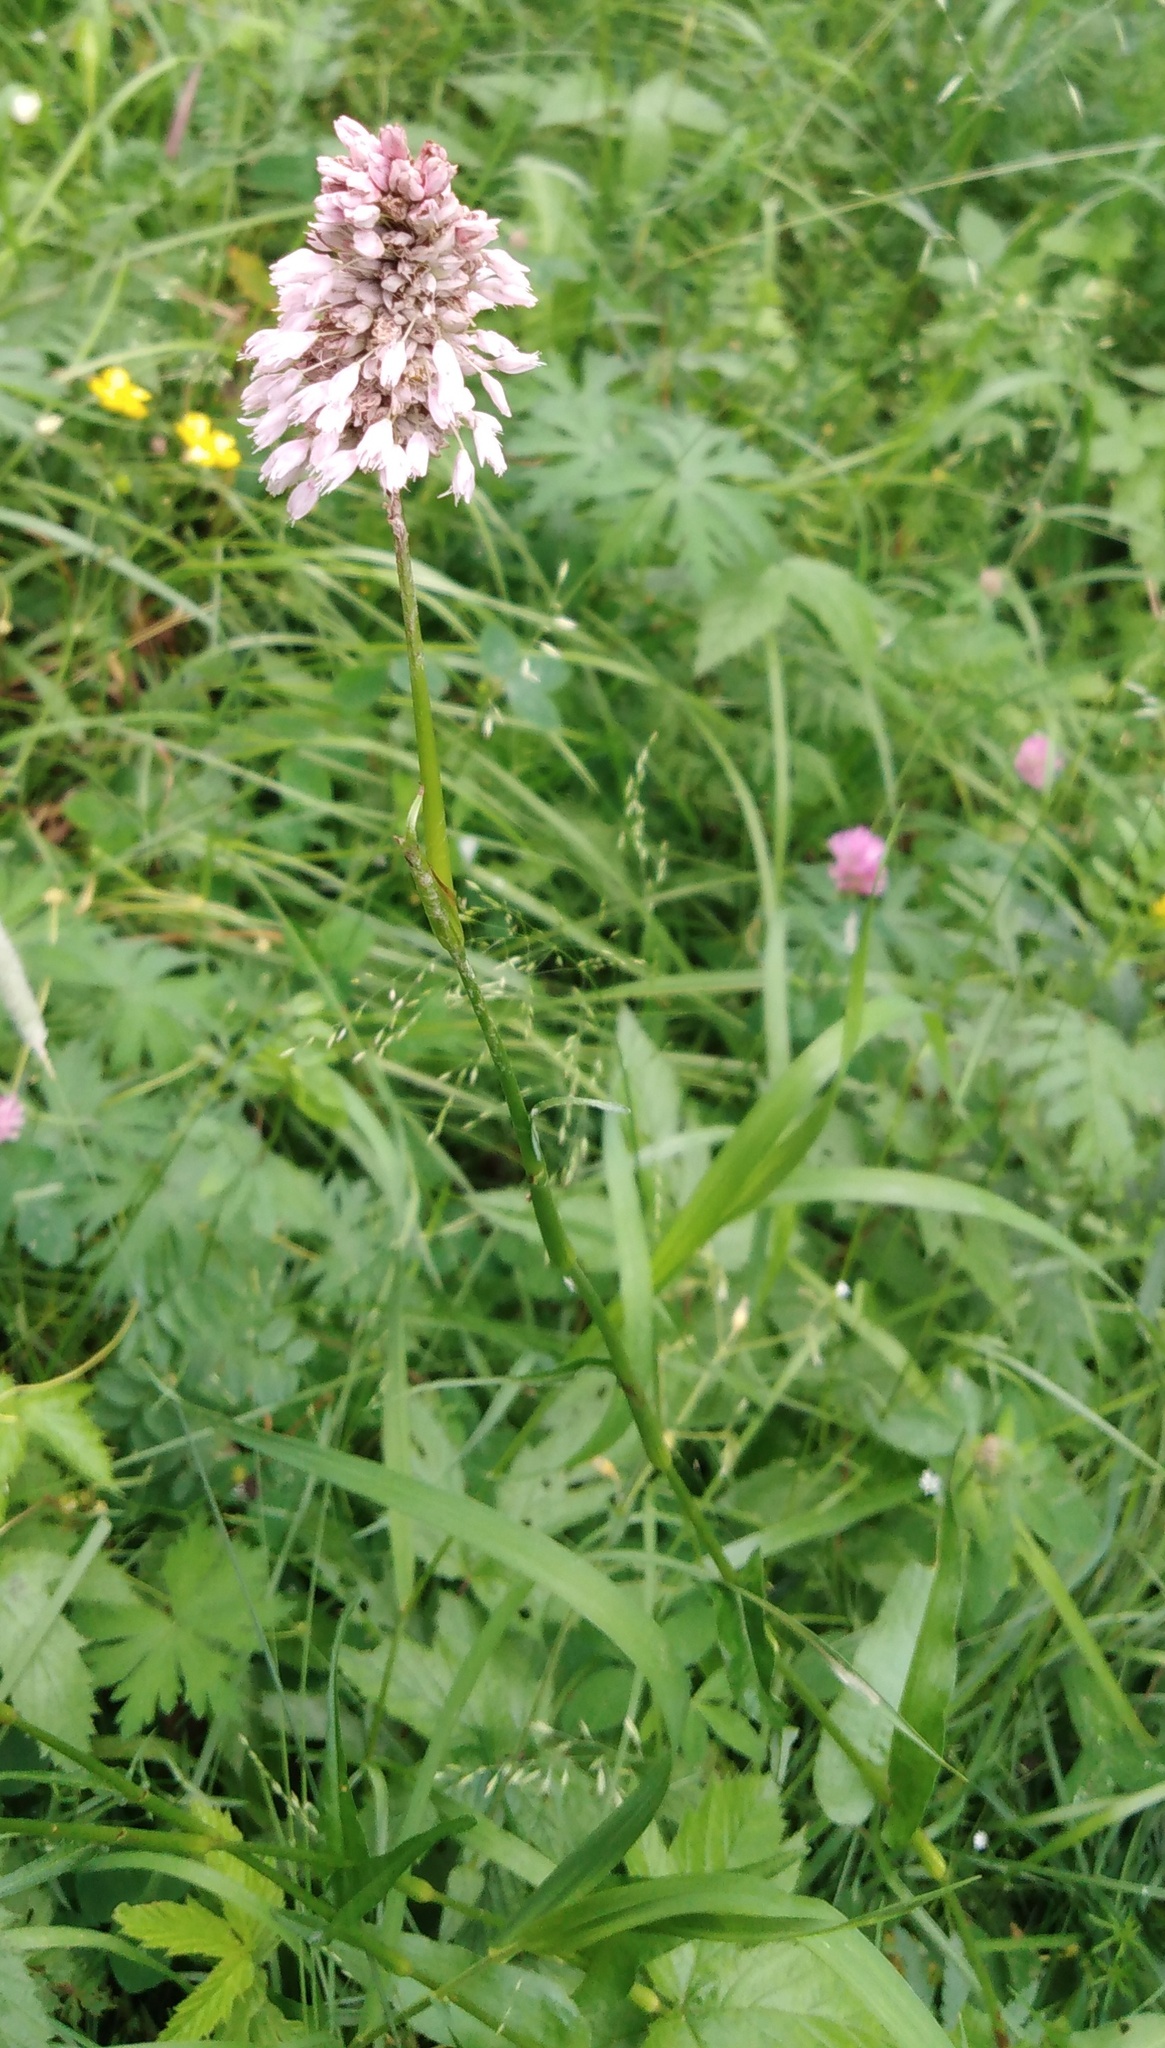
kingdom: Plantae
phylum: Tracheophyta
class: Magnoliopsida
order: Caryophyllales
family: Polygonaceae
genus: Bistorta
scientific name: Bistorta officinalis
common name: Common bistort
